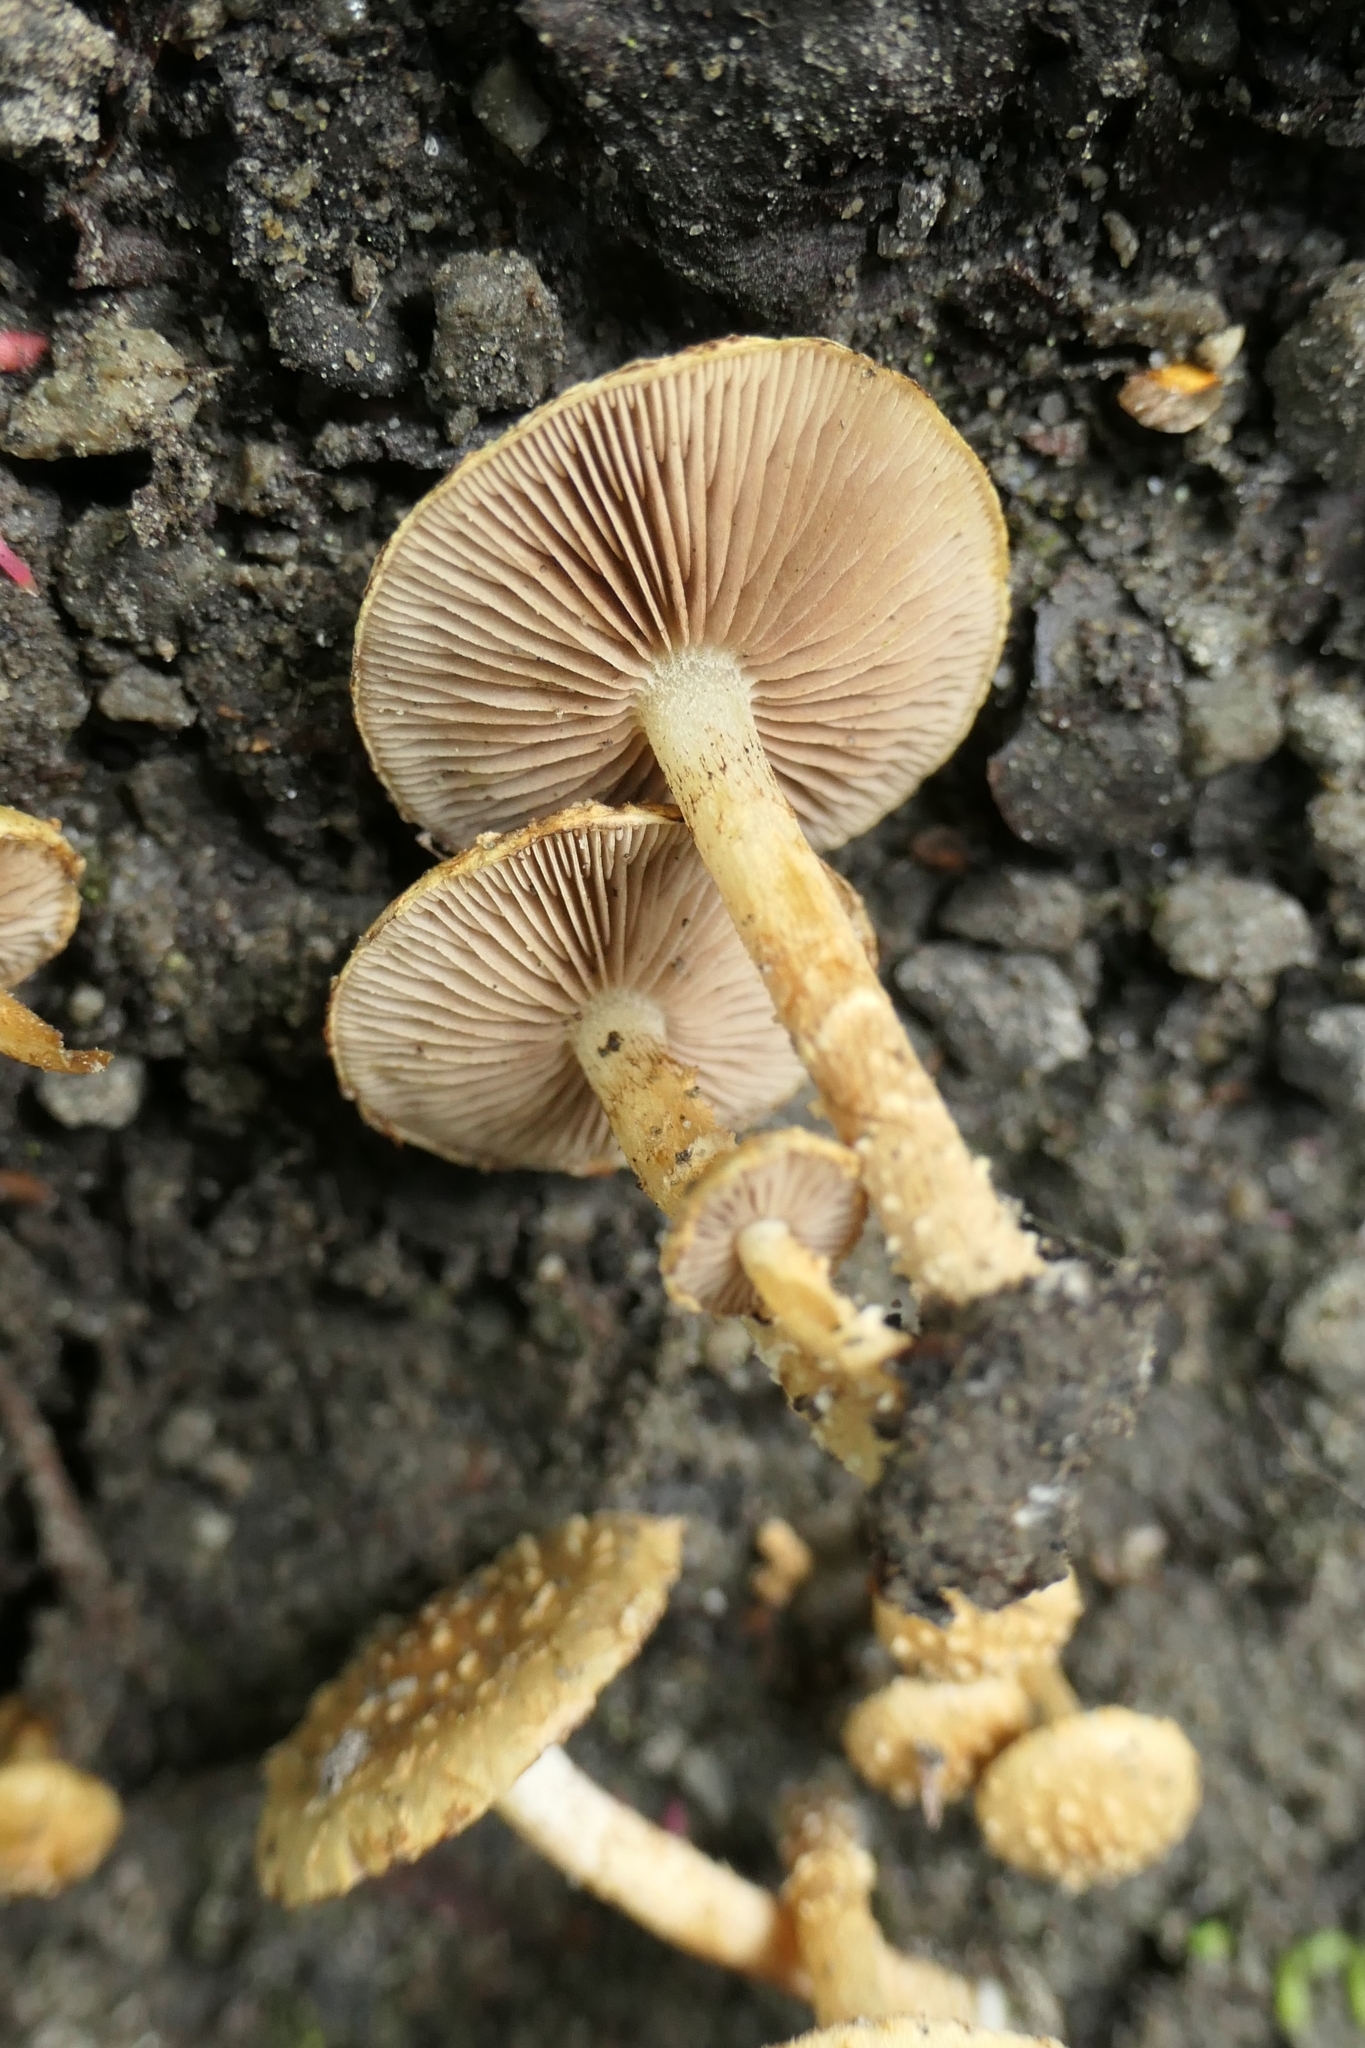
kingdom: Fungi
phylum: Basidiomycota
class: Agaricomycetes
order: Agaricales
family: Strophariaceae
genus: Pholiota
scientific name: Pholiota subflammans
